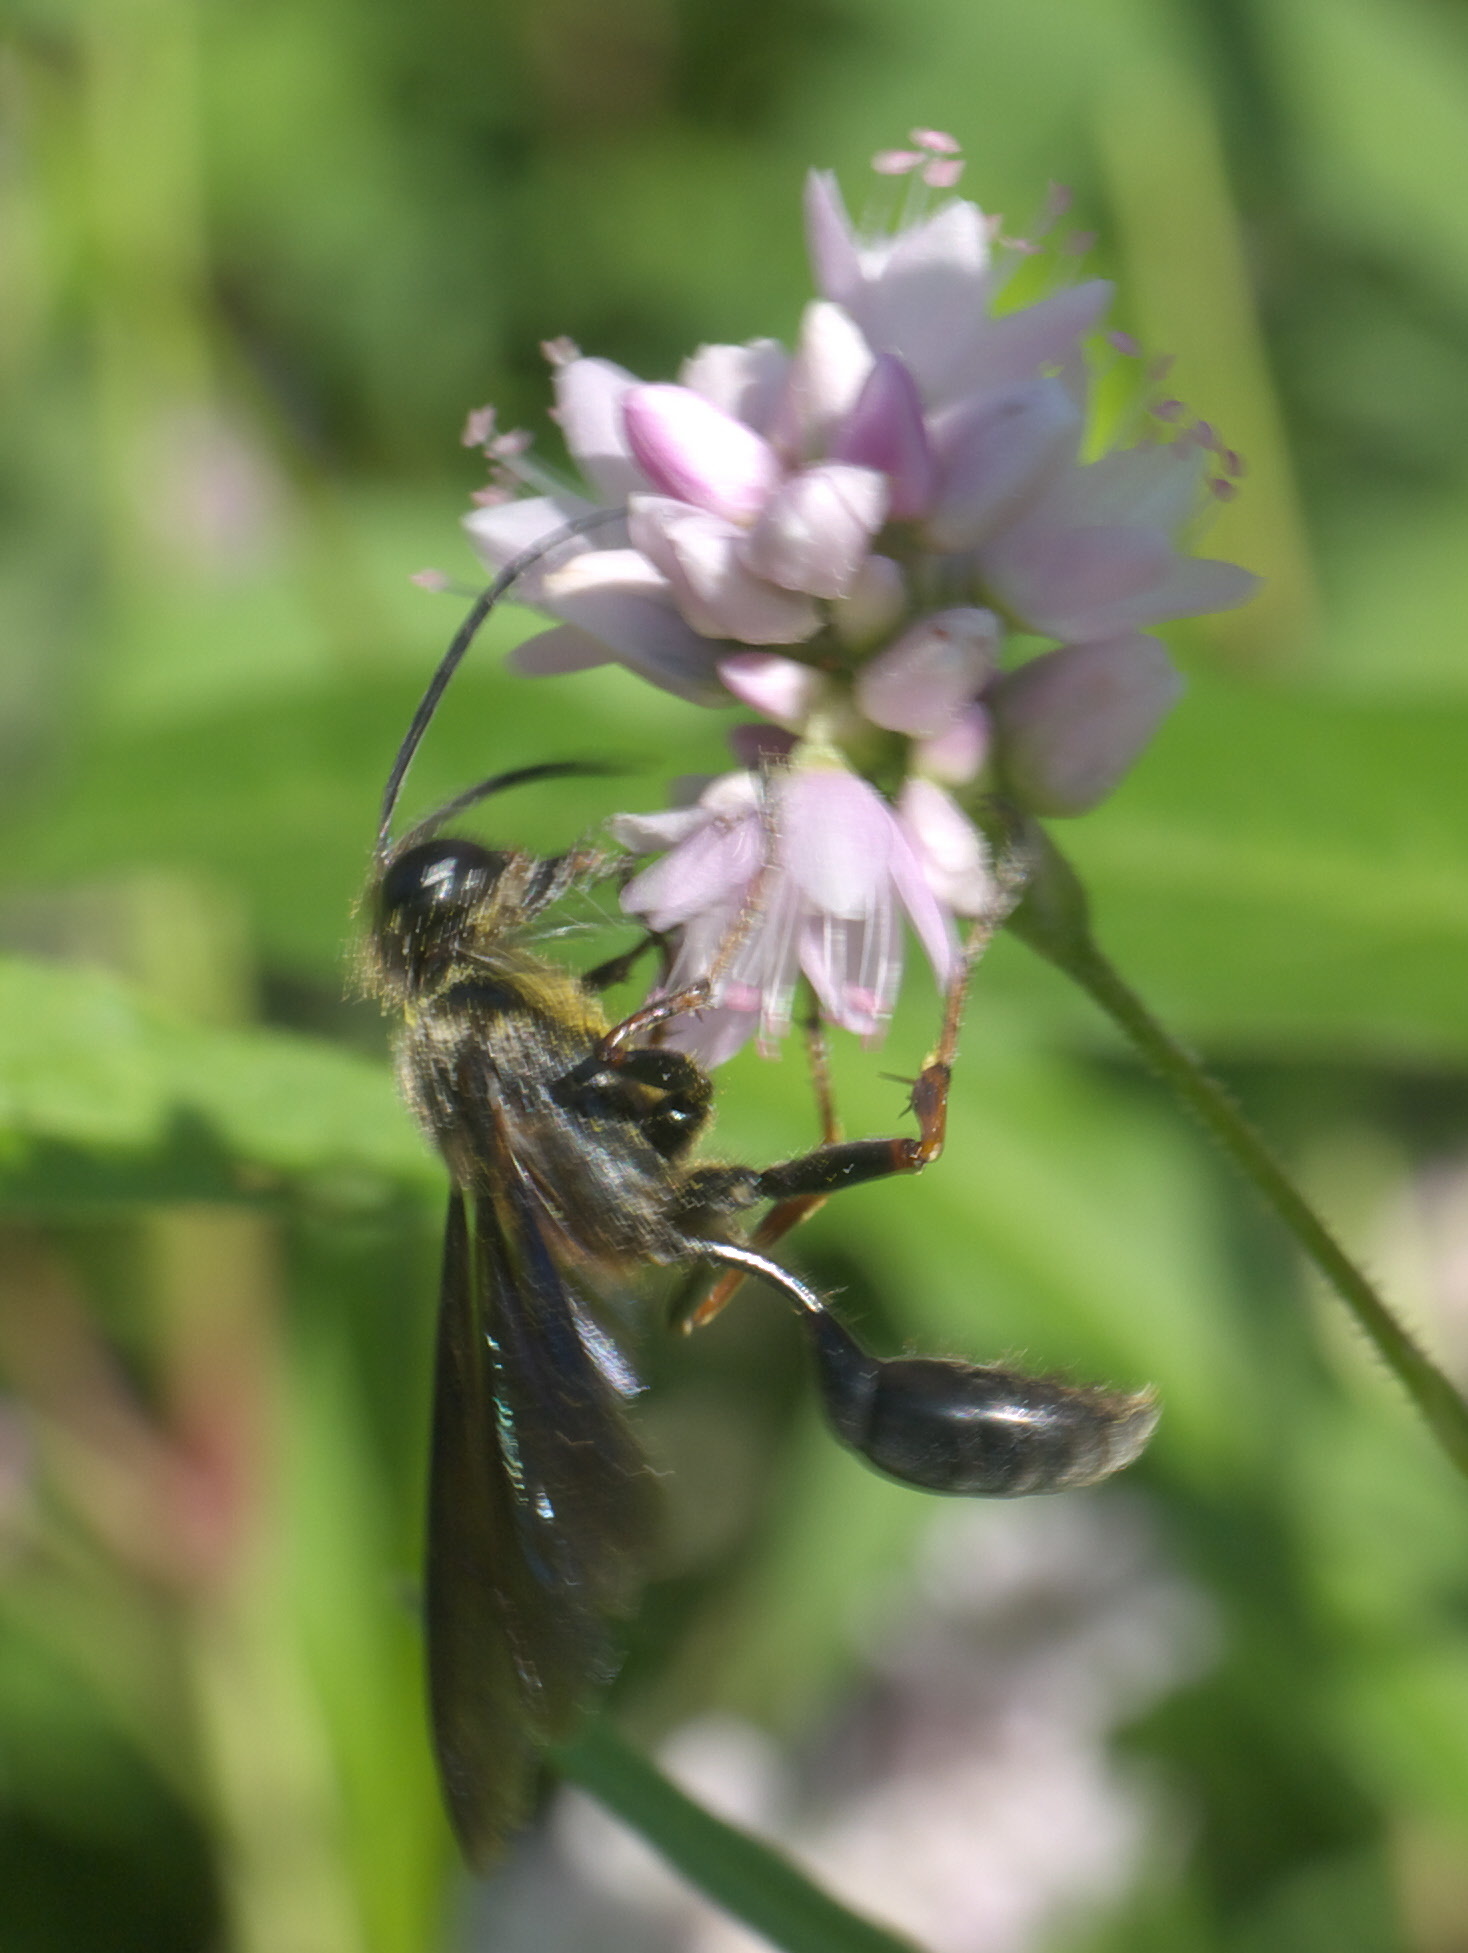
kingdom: Animalia
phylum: Arthropoda
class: Insecta
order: Hymenoptera
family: Sphecidae
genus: Isodontia
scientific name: Isodontia auripes
